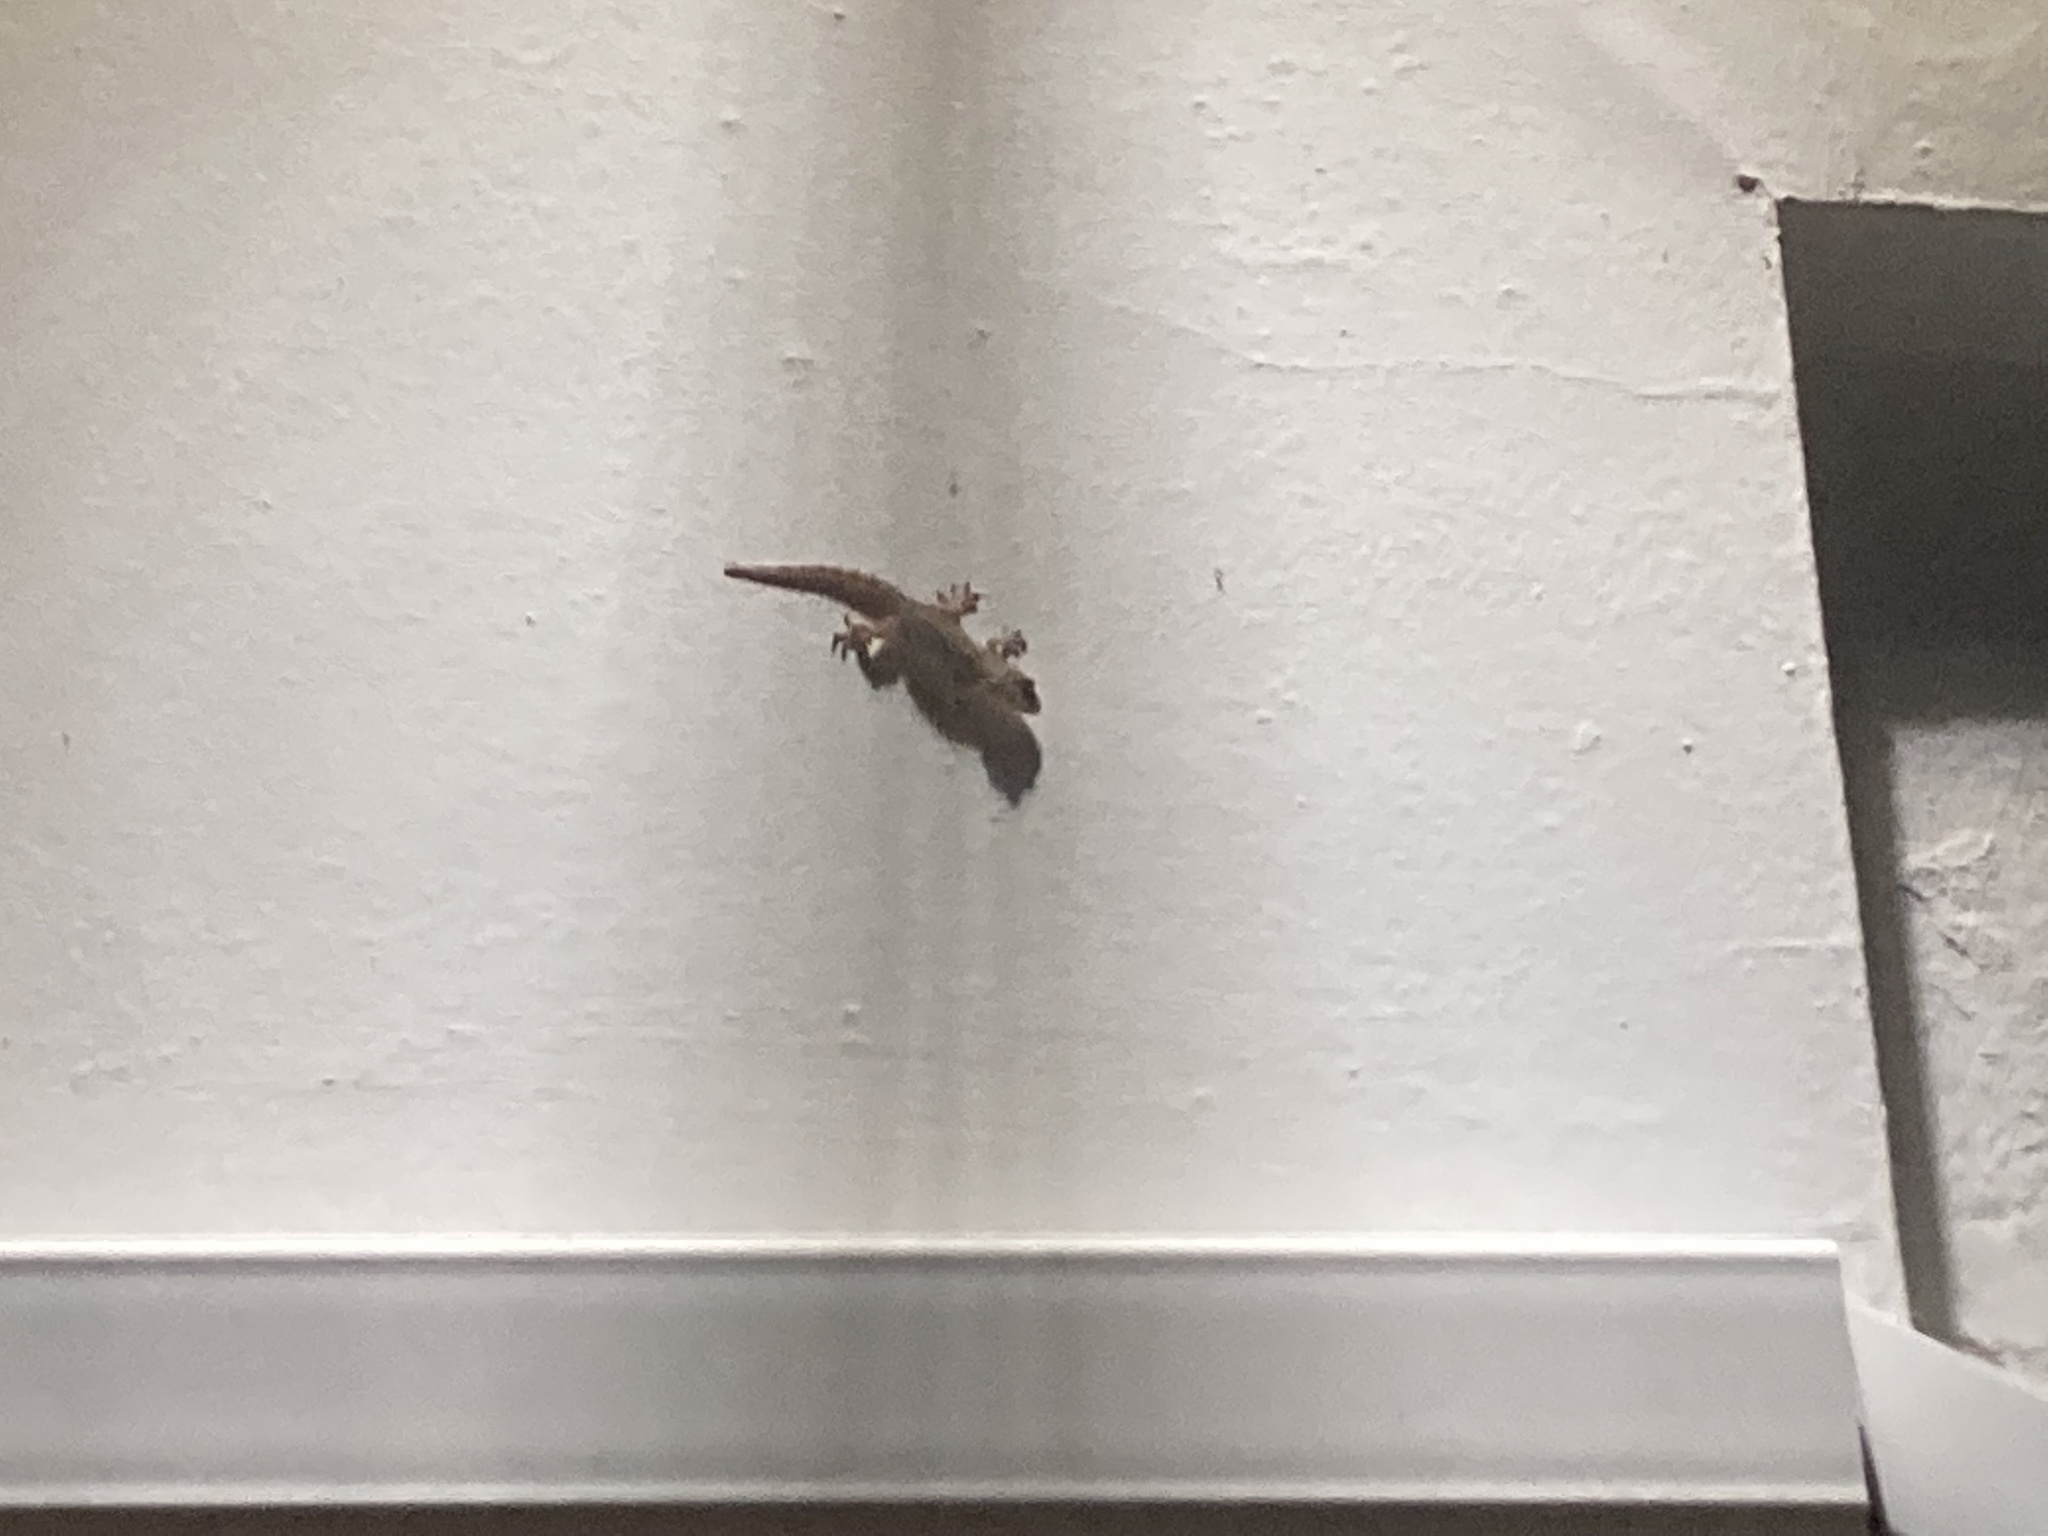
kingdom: Animalia
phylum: Chordata
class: Squamata
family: Phyllodactylidae
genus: Tarentola
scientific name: Tarentola mauritanica
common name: Moorish gecko
